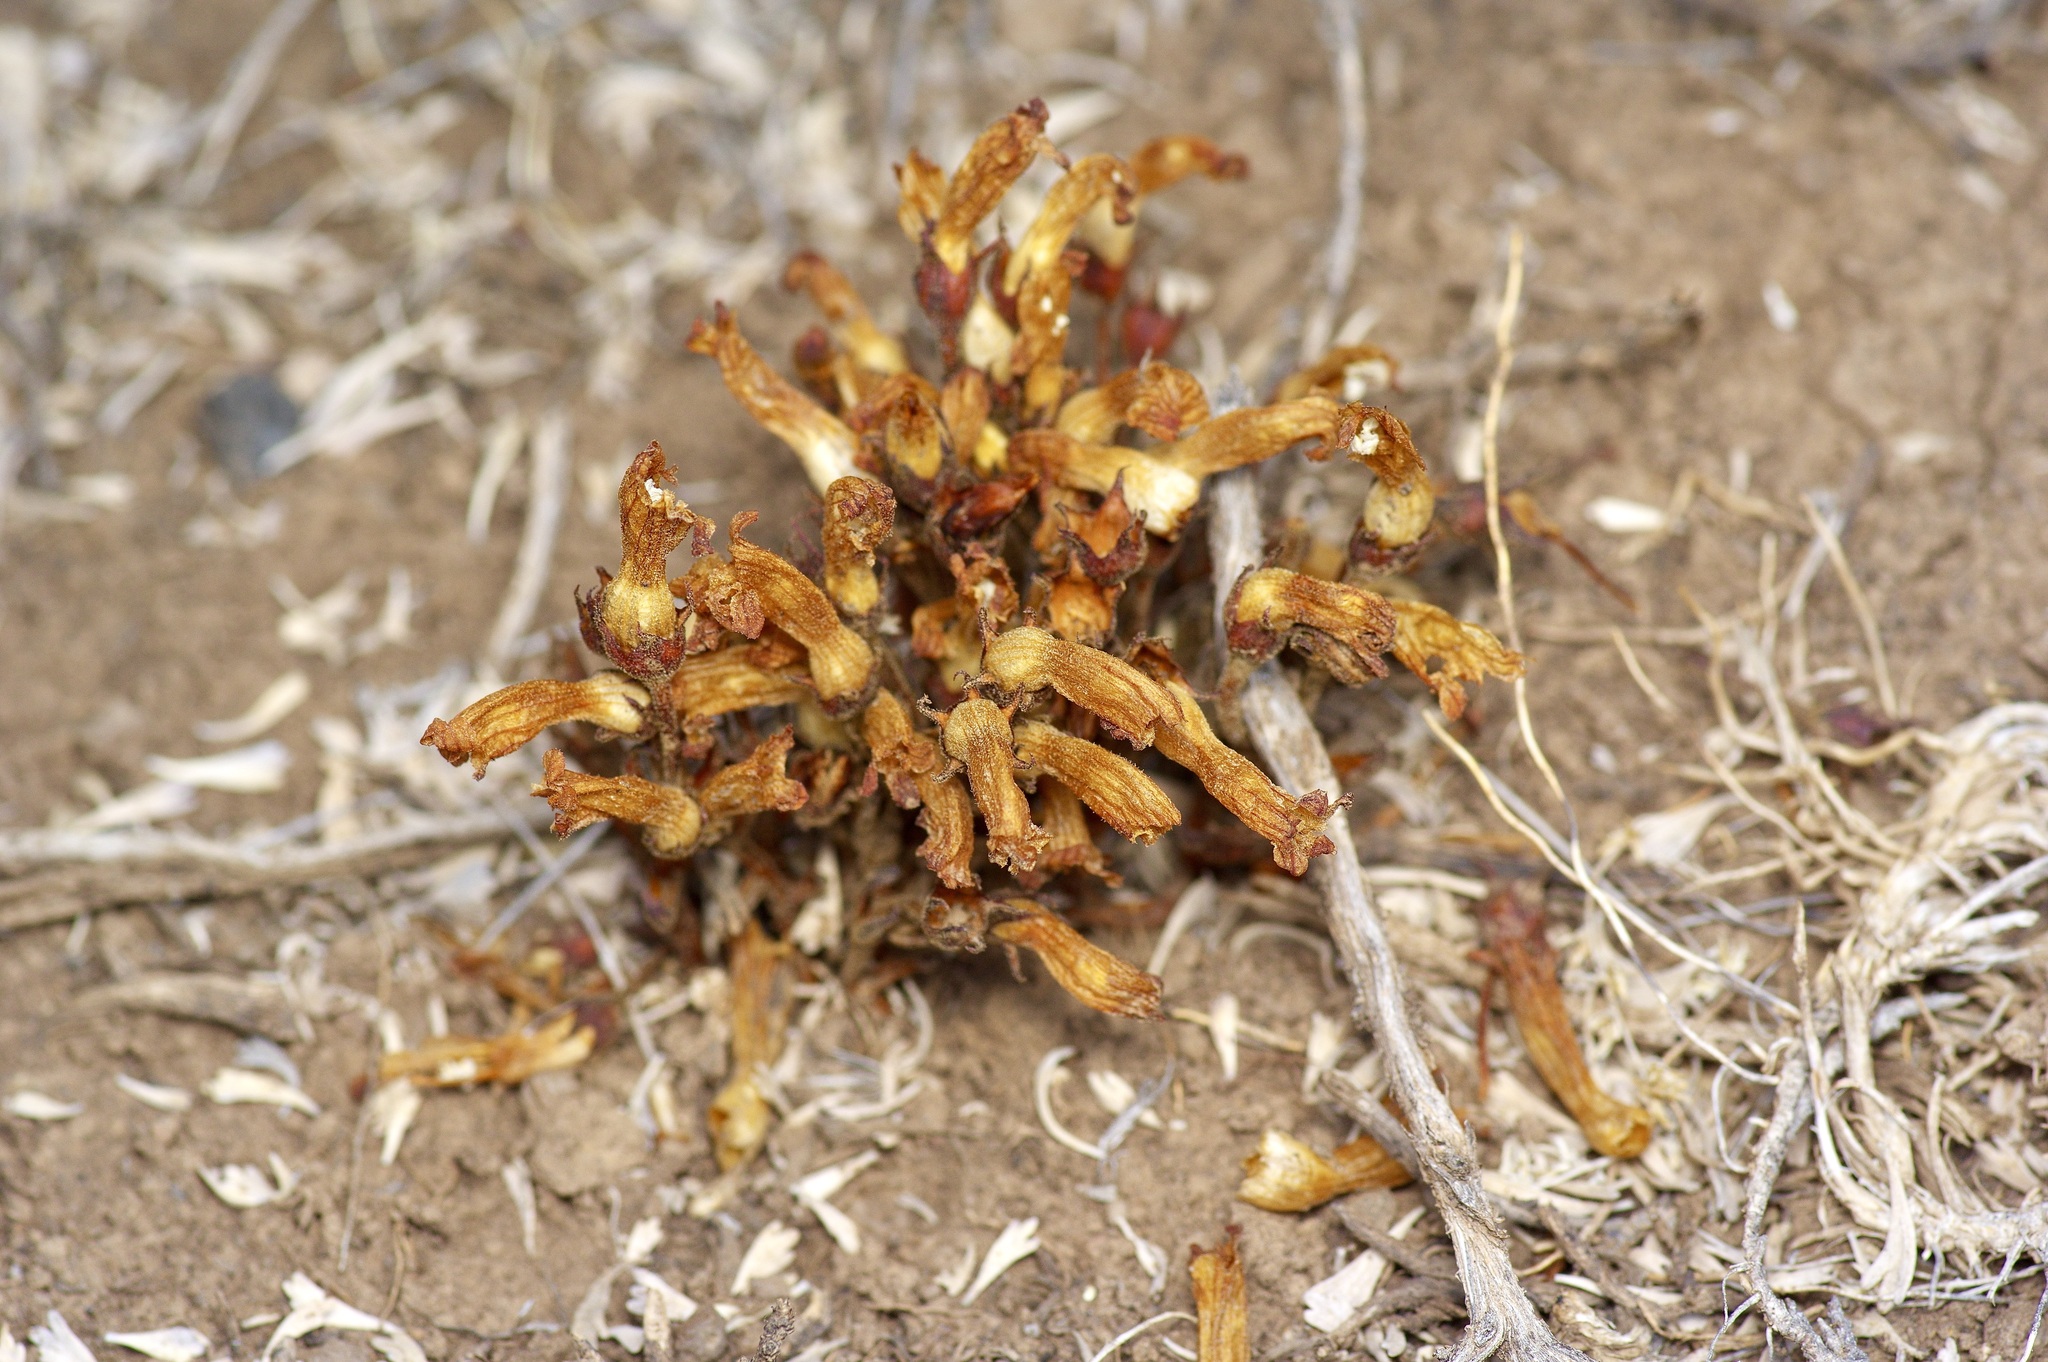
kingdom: Plantae
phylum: Tracheophyta
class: Magnoliopsida
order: Lamiales
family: Orobanchaceae
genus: Aphyllon
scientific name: Aphyllon fasciculatum
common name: Clustered broomrape
